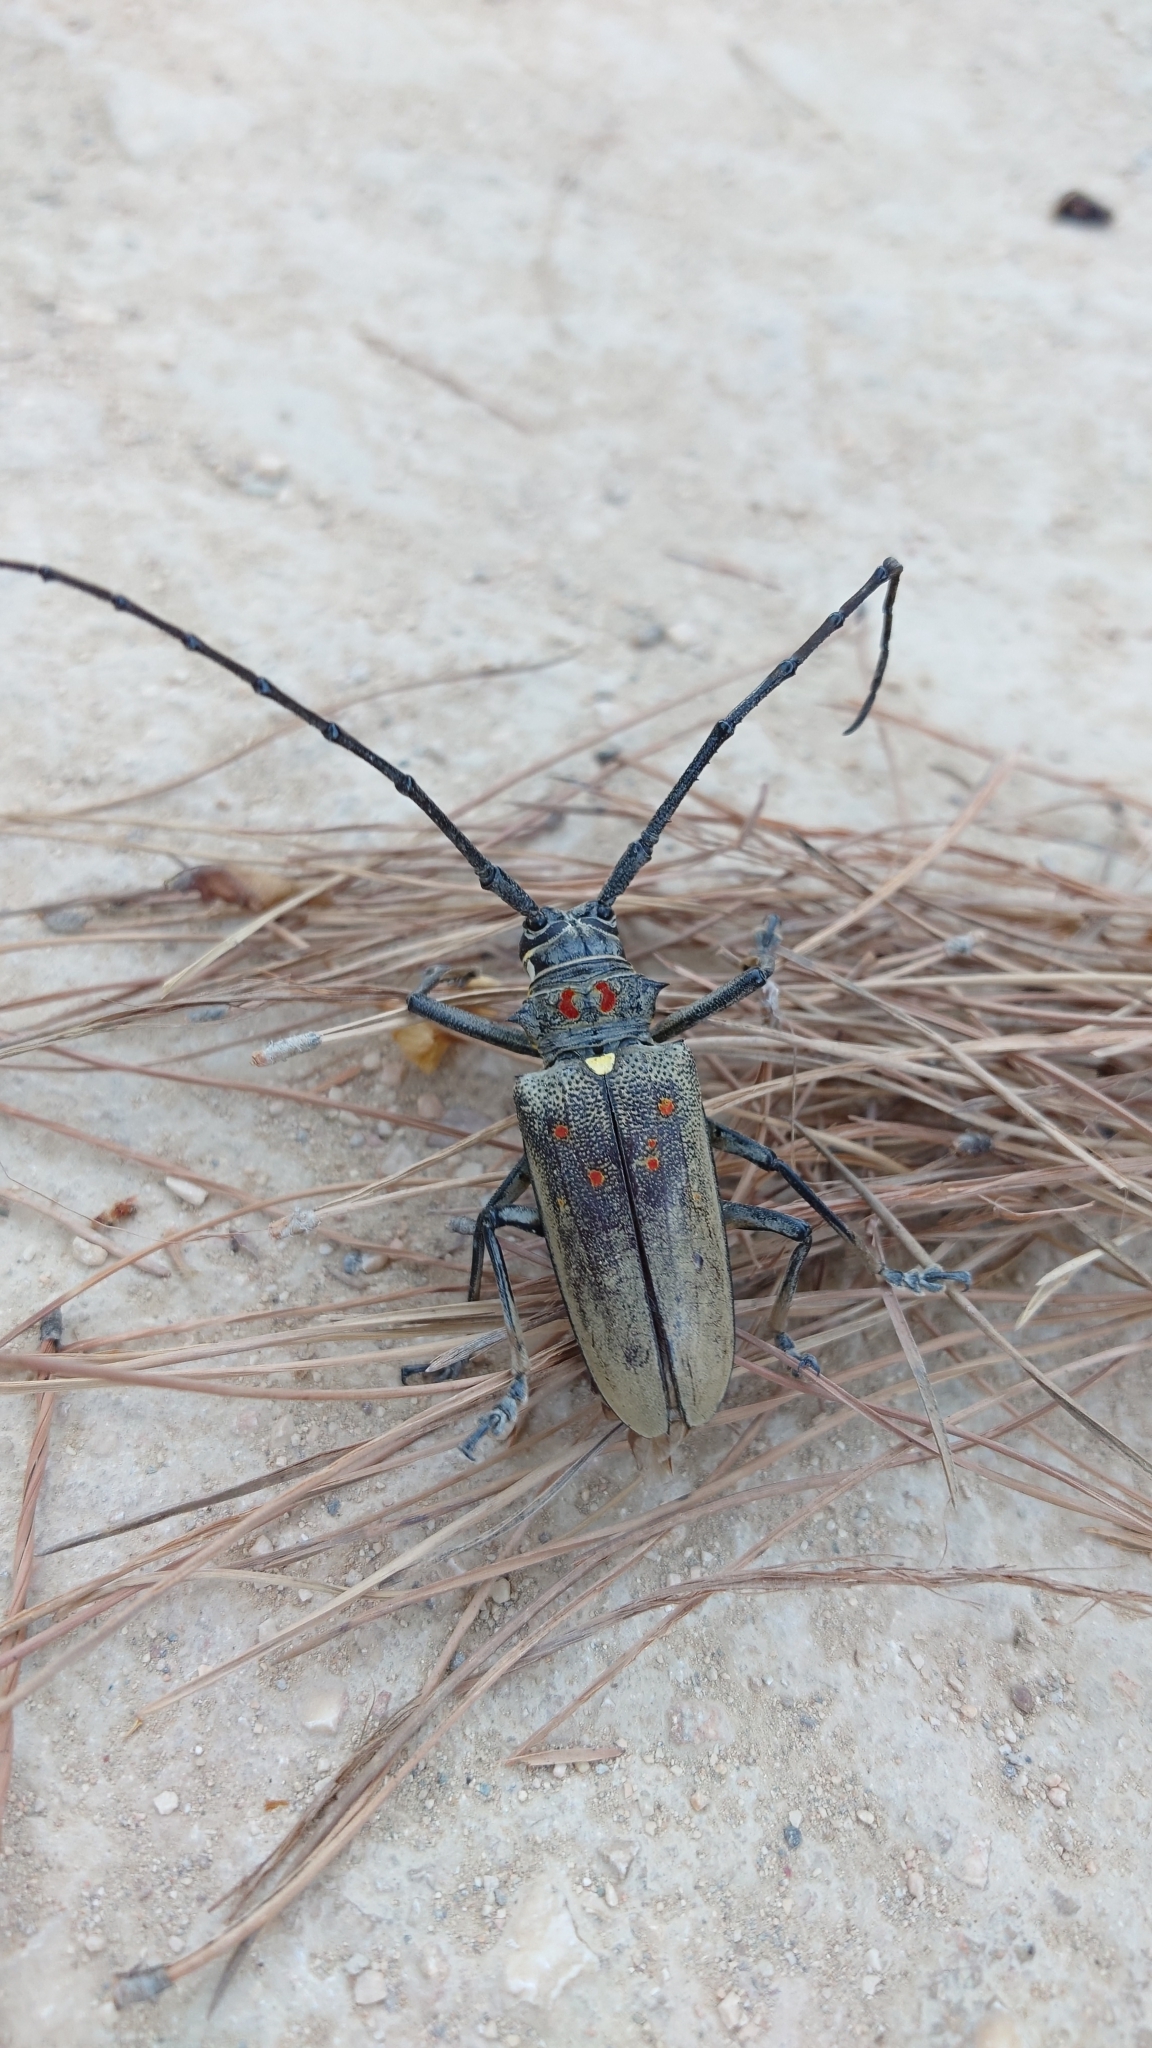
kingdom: Animalia
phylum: Arthropoda
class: Insecta
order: Coleoptera
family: Cerambycidae
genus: Batocera
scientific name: Batocera rufomaculata
